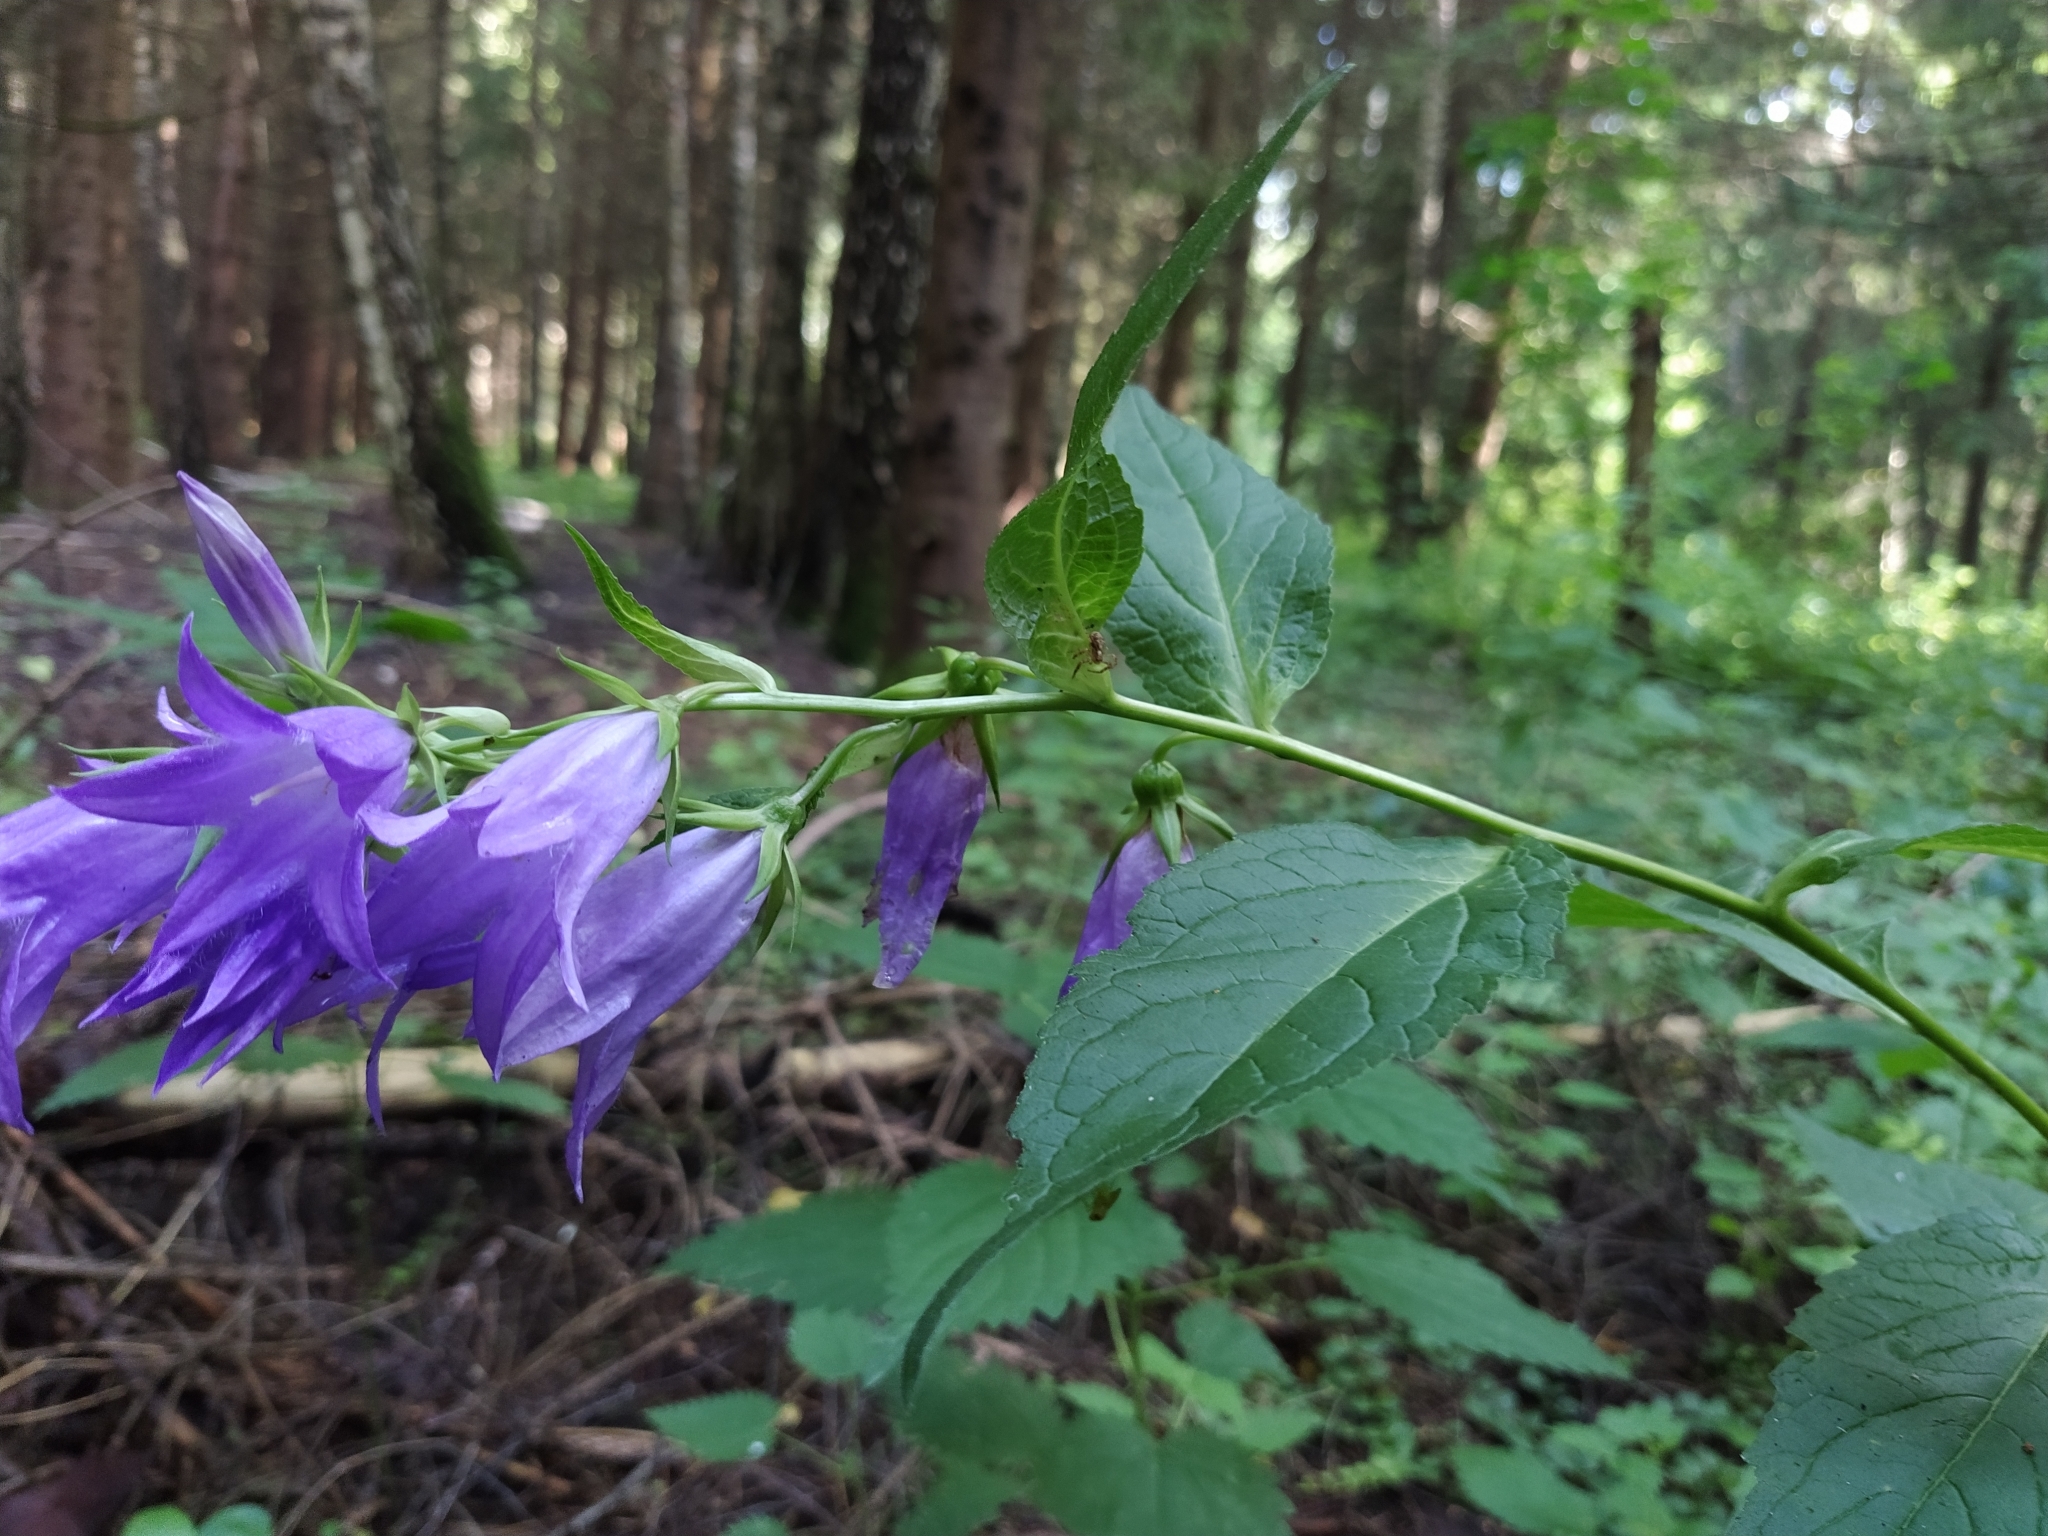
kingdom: Plantae
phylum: Tracheophyta
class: Magnoliopsida
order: Asterales
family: Campanulaceae
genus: Campanula
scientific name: Campanula latifolia
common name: Giant bellflower
